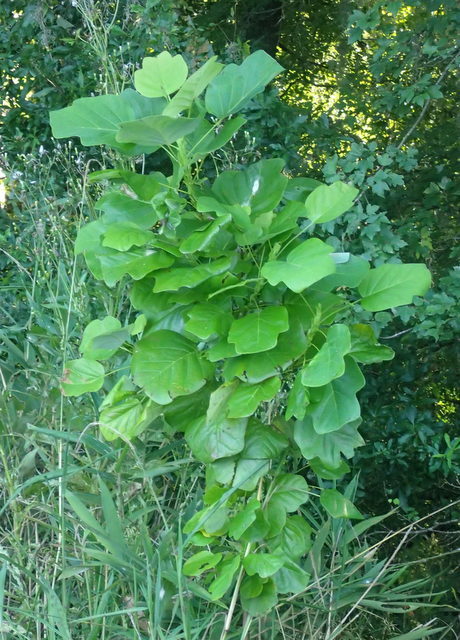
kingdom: Plantae
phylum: Tracheophyta
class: Magnoliopsida
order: Magnoliales
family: Magnoliaceae
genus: Liriodendron
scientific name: Liriodendron tulipifera
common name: Tulip tree
